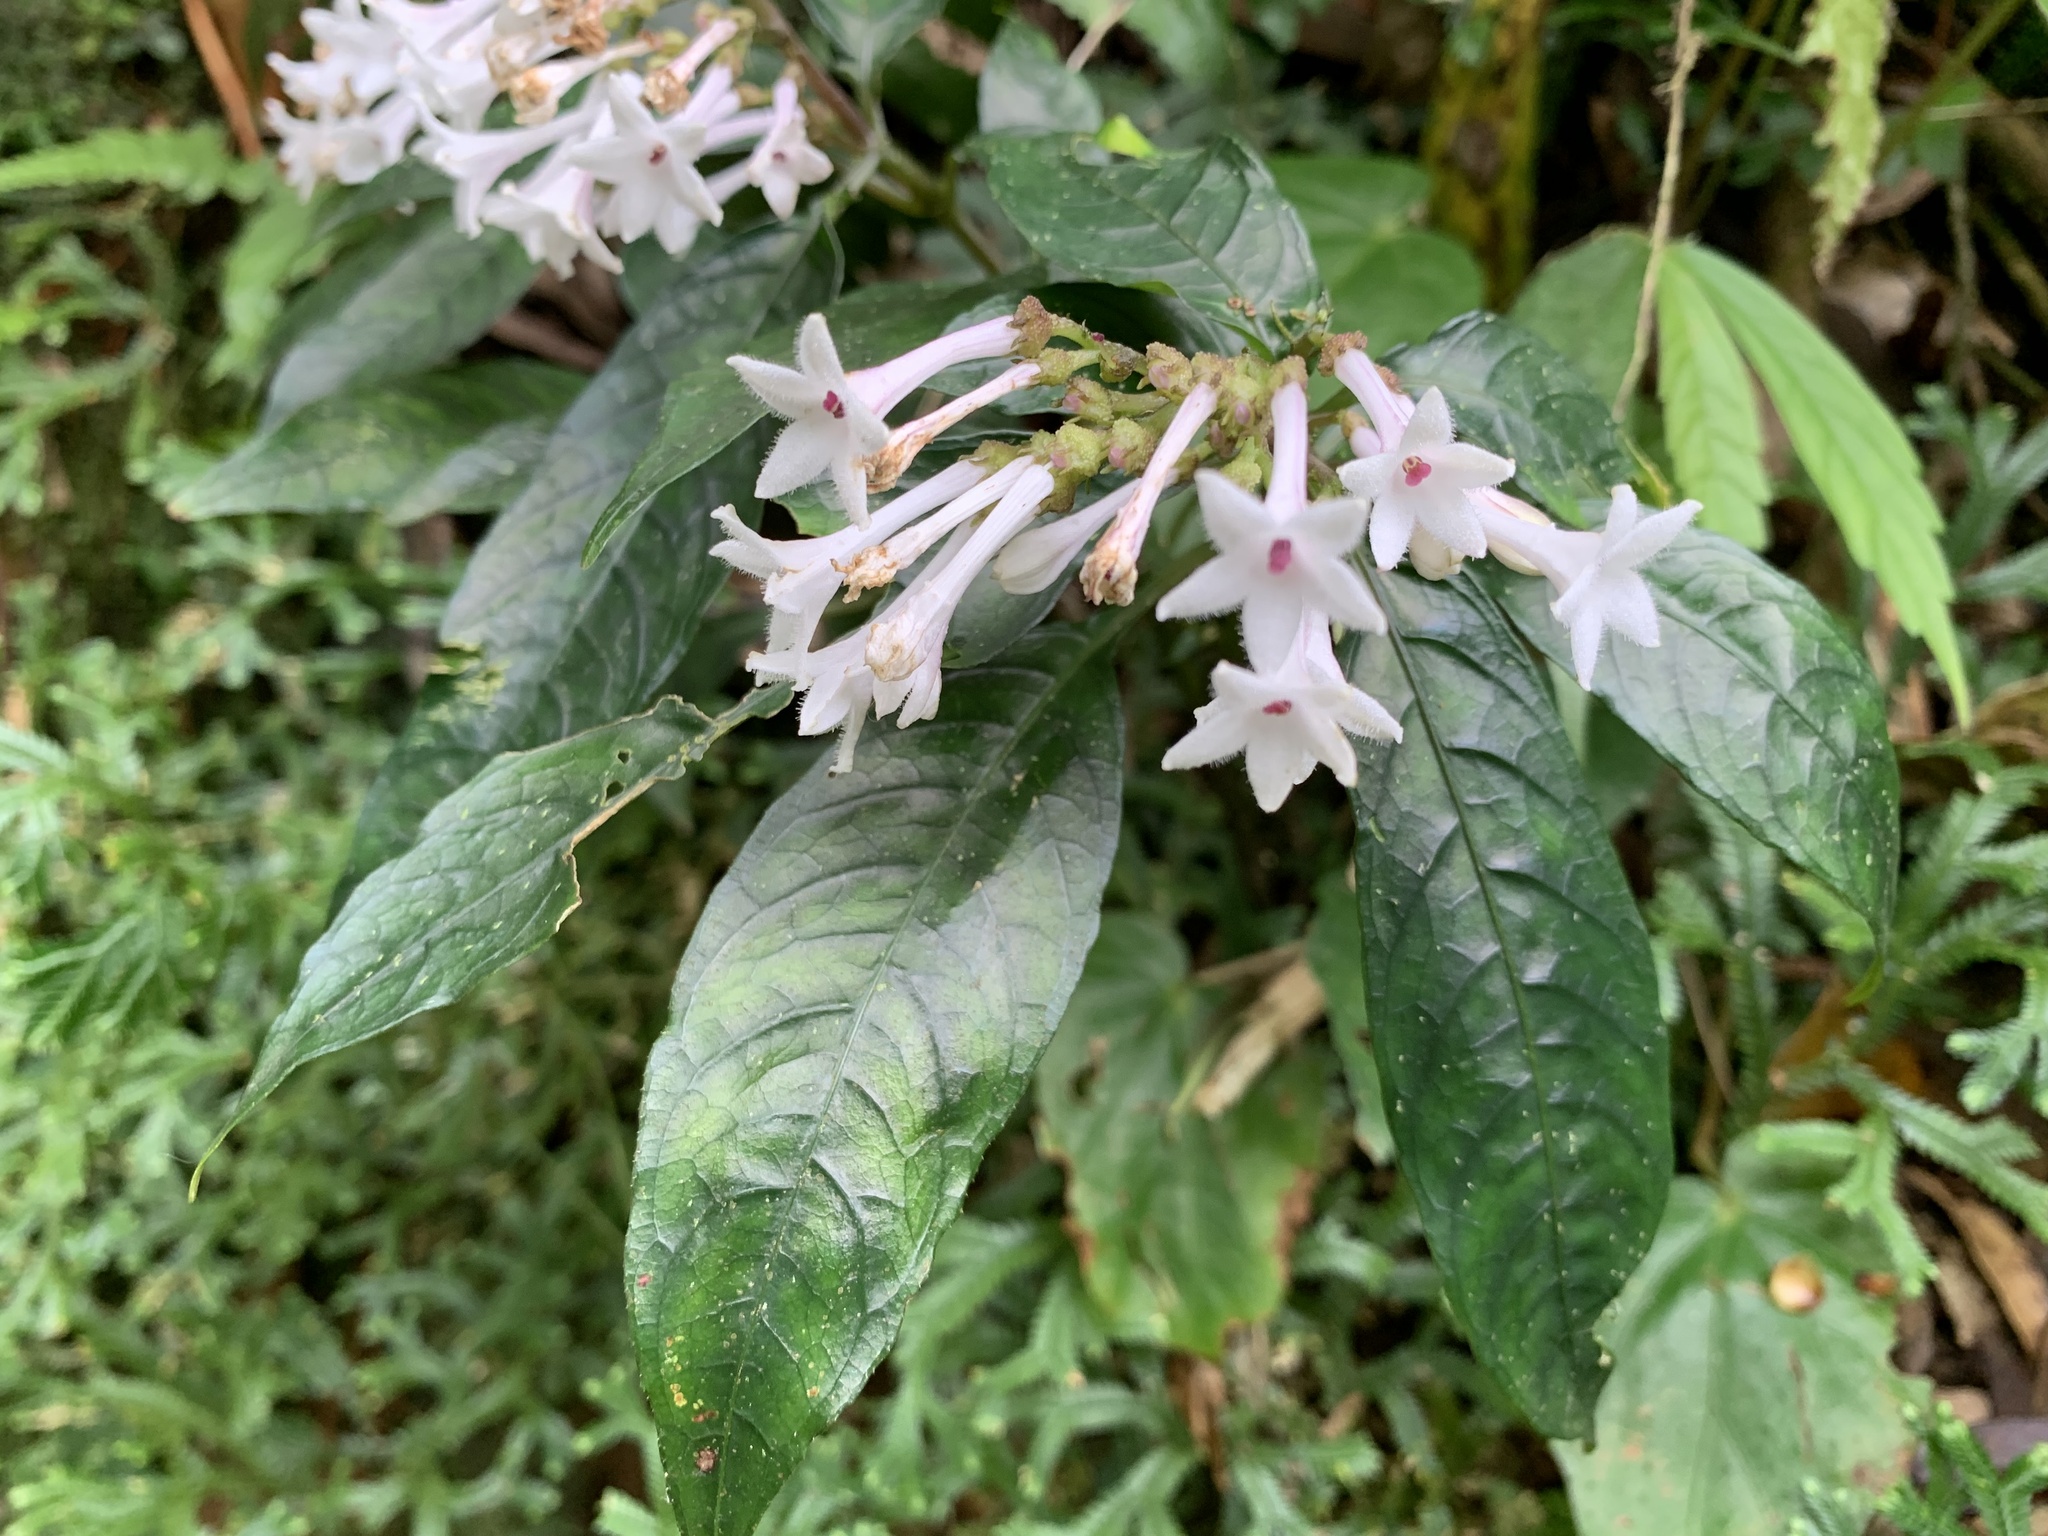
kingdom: Plantae
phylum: Tracheophyta
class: Magnoliopsida
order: Gentianales
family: Rubiaceae
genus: Ophiorrhiza
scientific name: Ophiorrhiza hayatana
